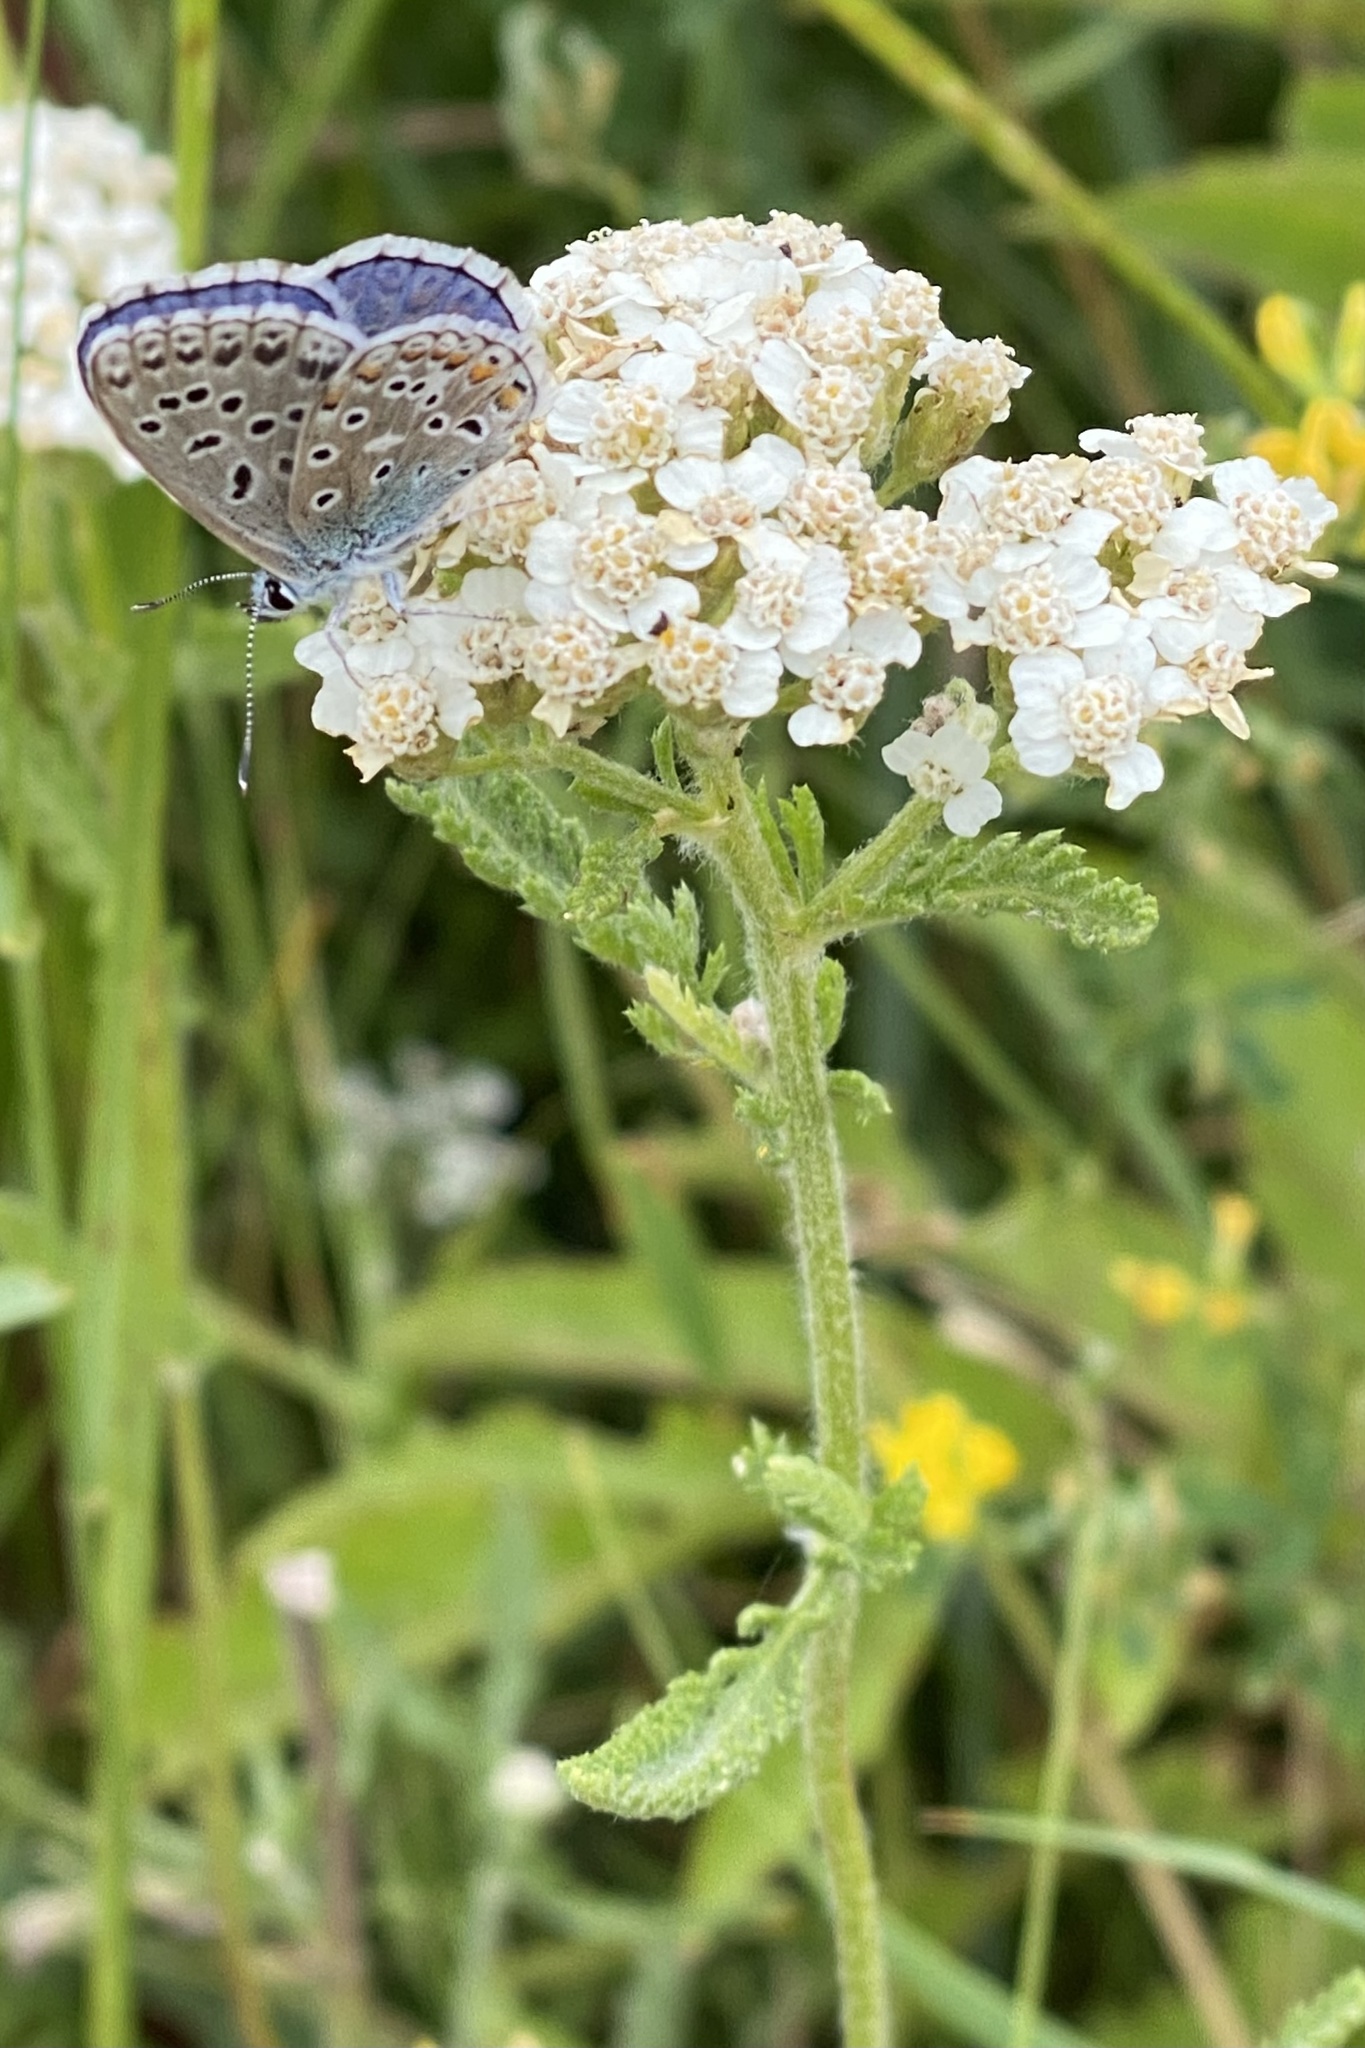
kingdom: Plantae
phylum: Tracheophyta
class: Magnoliopsida
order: Asterales
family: Asteraceae
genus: Achillea
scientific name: Achillea millefolium
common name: Yarrow
